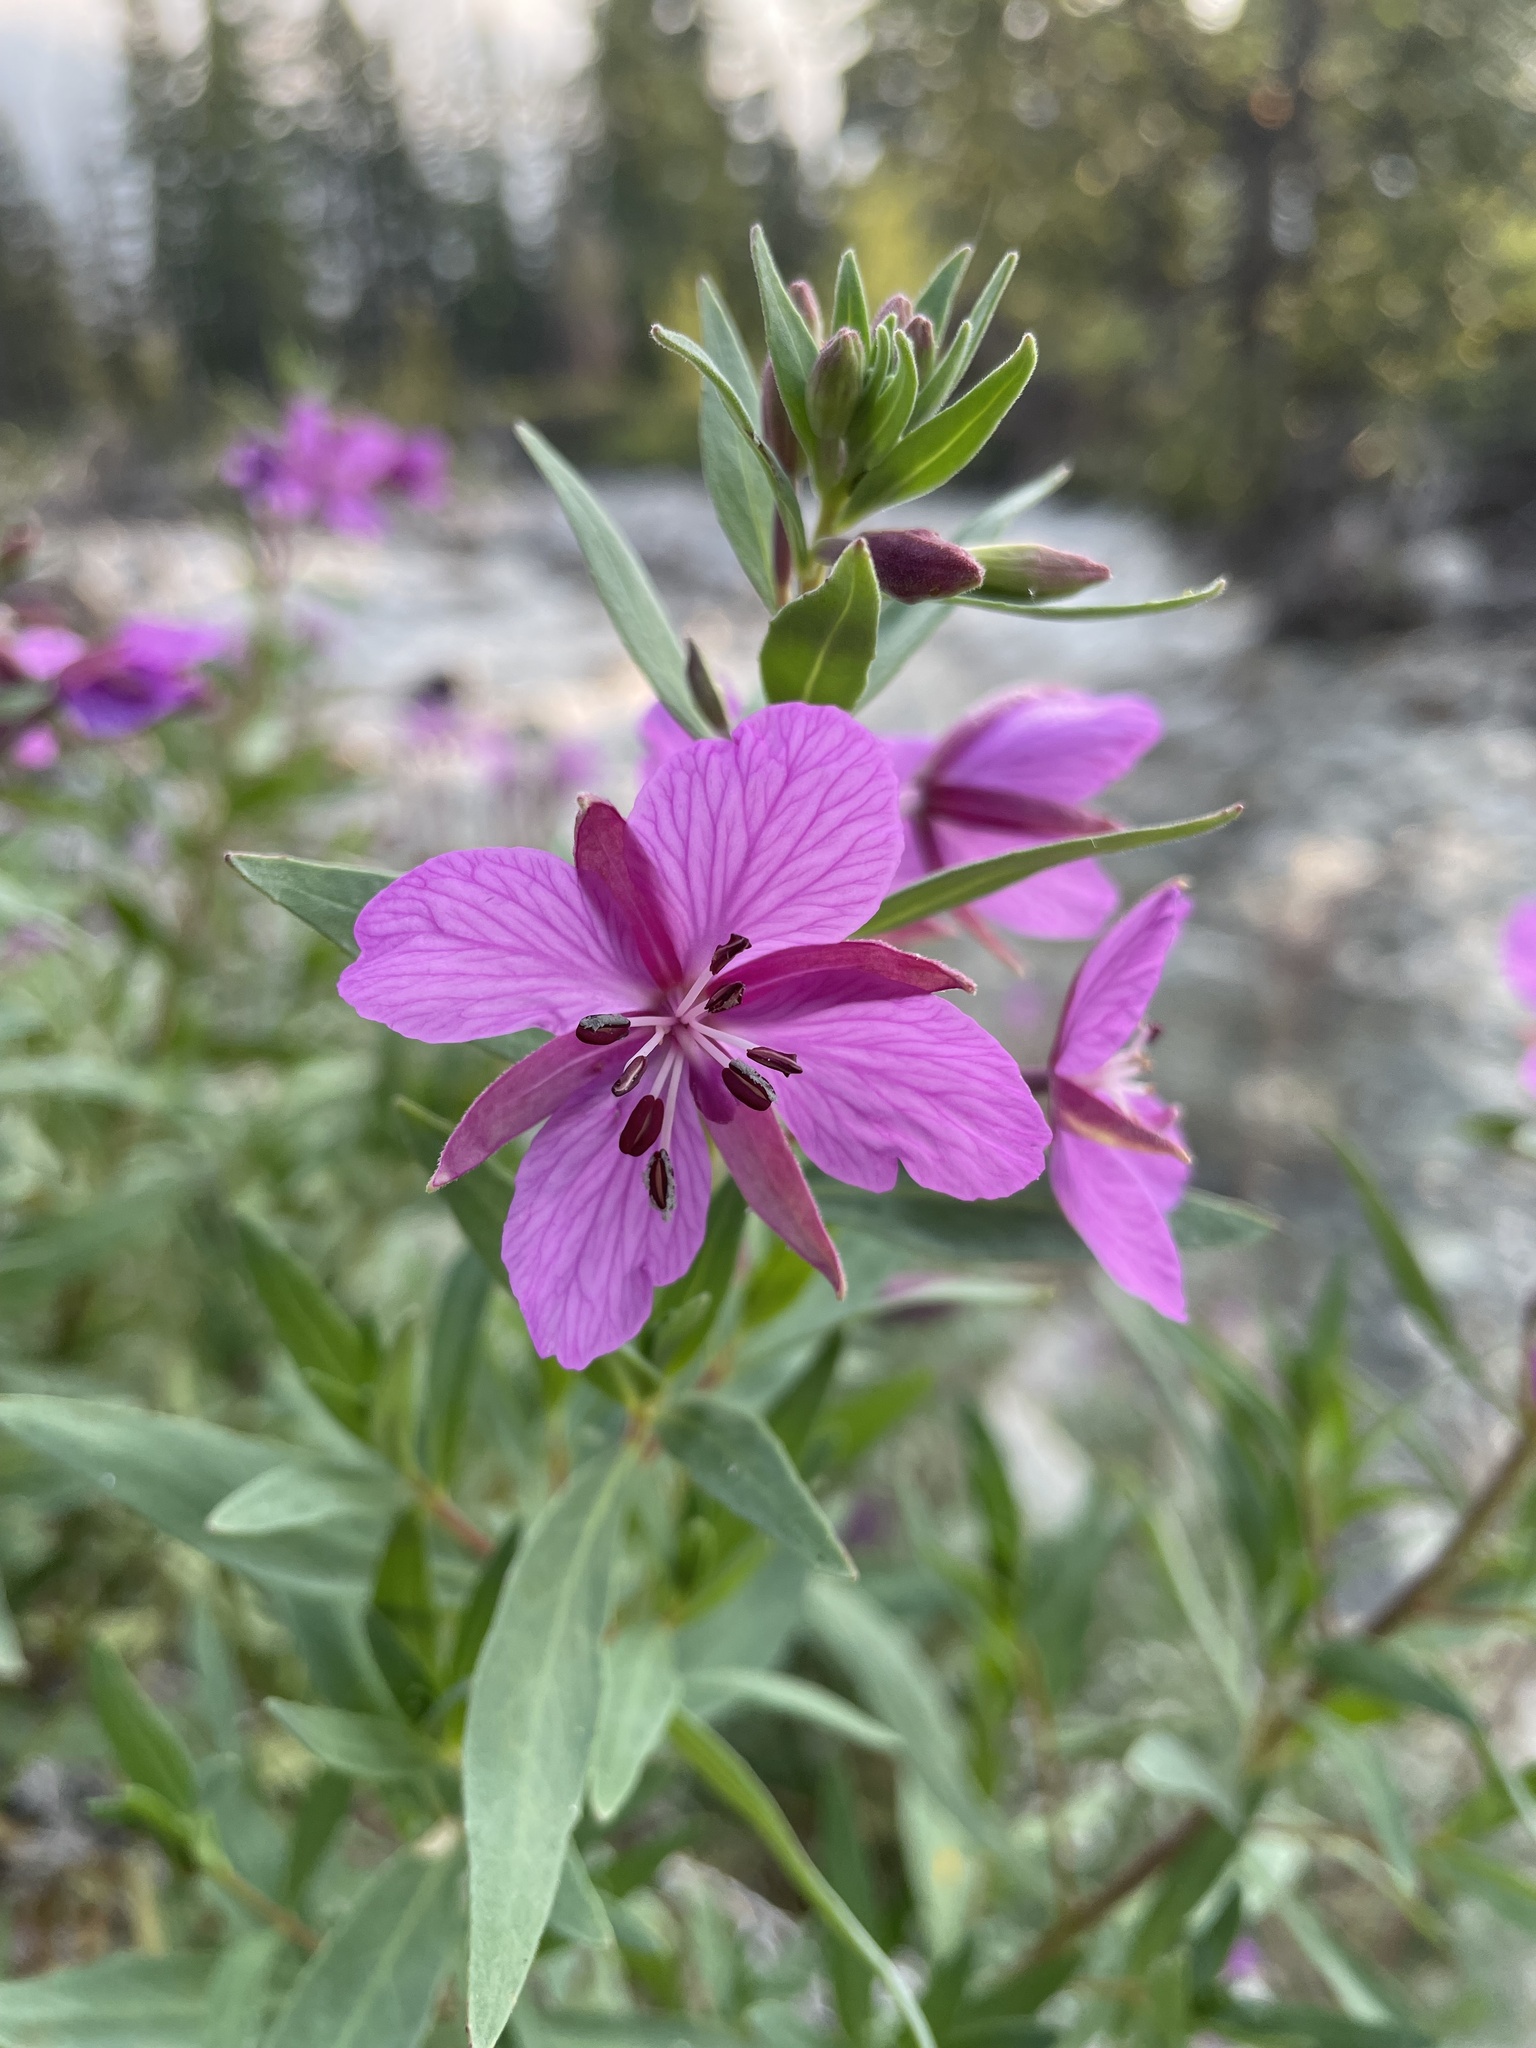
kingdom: Plantae
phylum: Tracheophyta
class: Magnoliopsida
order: Myrtales
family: Onagraceae
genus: Chamaenerion
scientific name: Chamaenerion latifolium
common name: Dwarf fireweed
